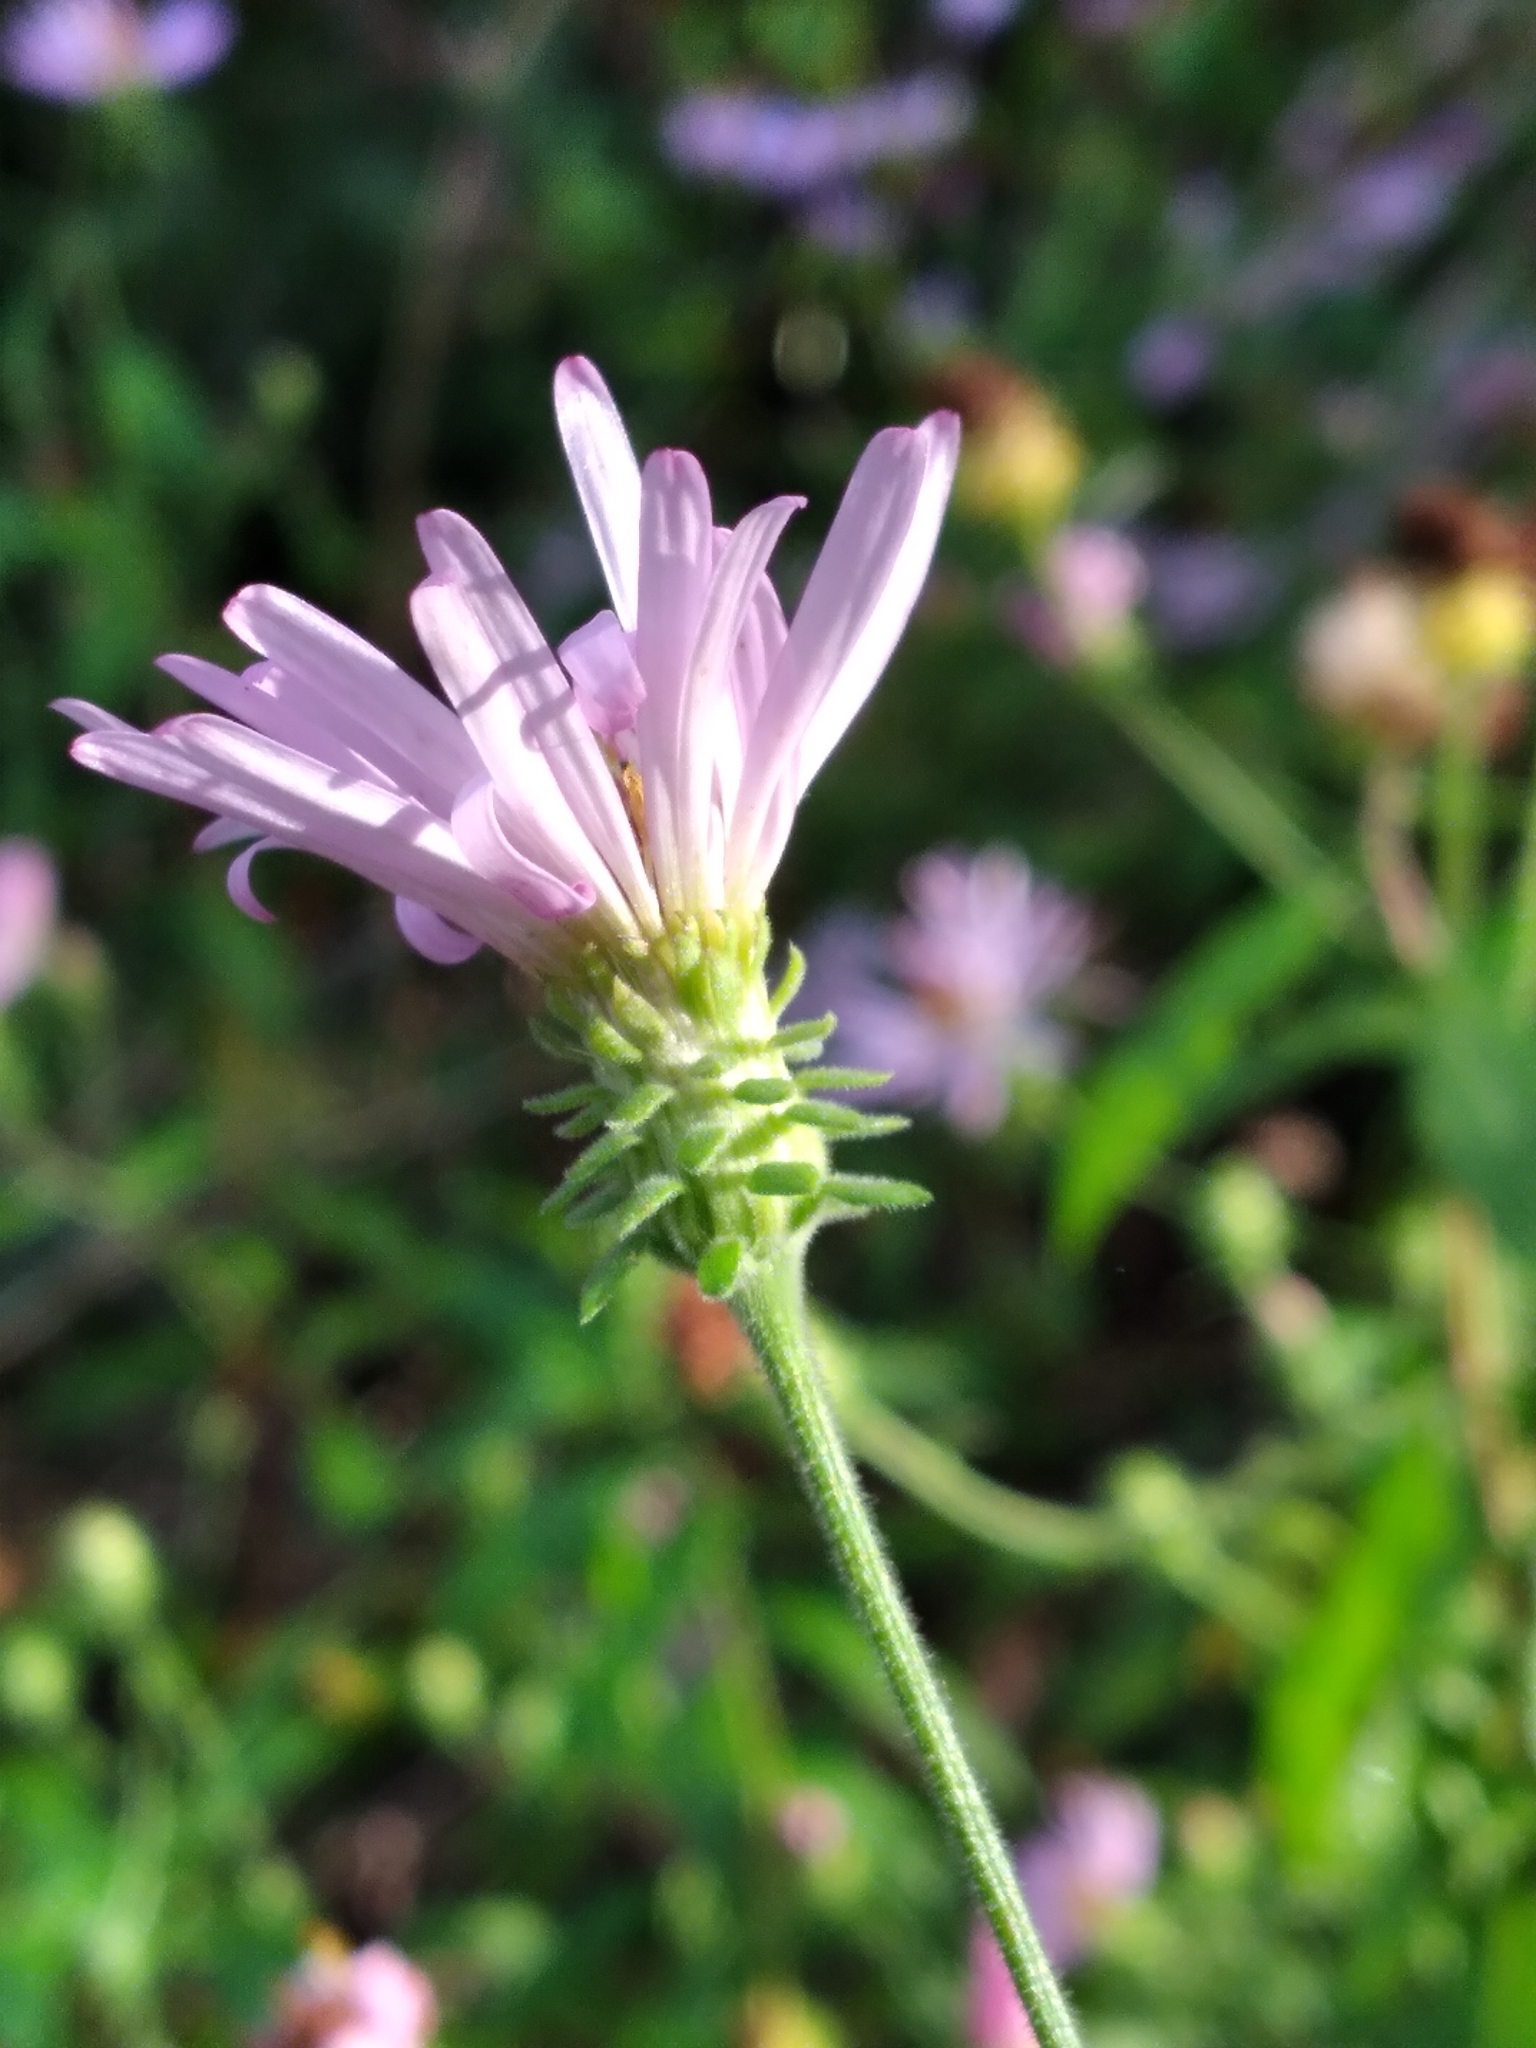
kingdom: Plantae
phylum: Tracheophyta
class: Magnoliopsida
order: Asterales
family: Asteraceae
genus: Symphyotrichum
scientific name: Symphyotrichum elliottii
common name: Southern swamp aster
